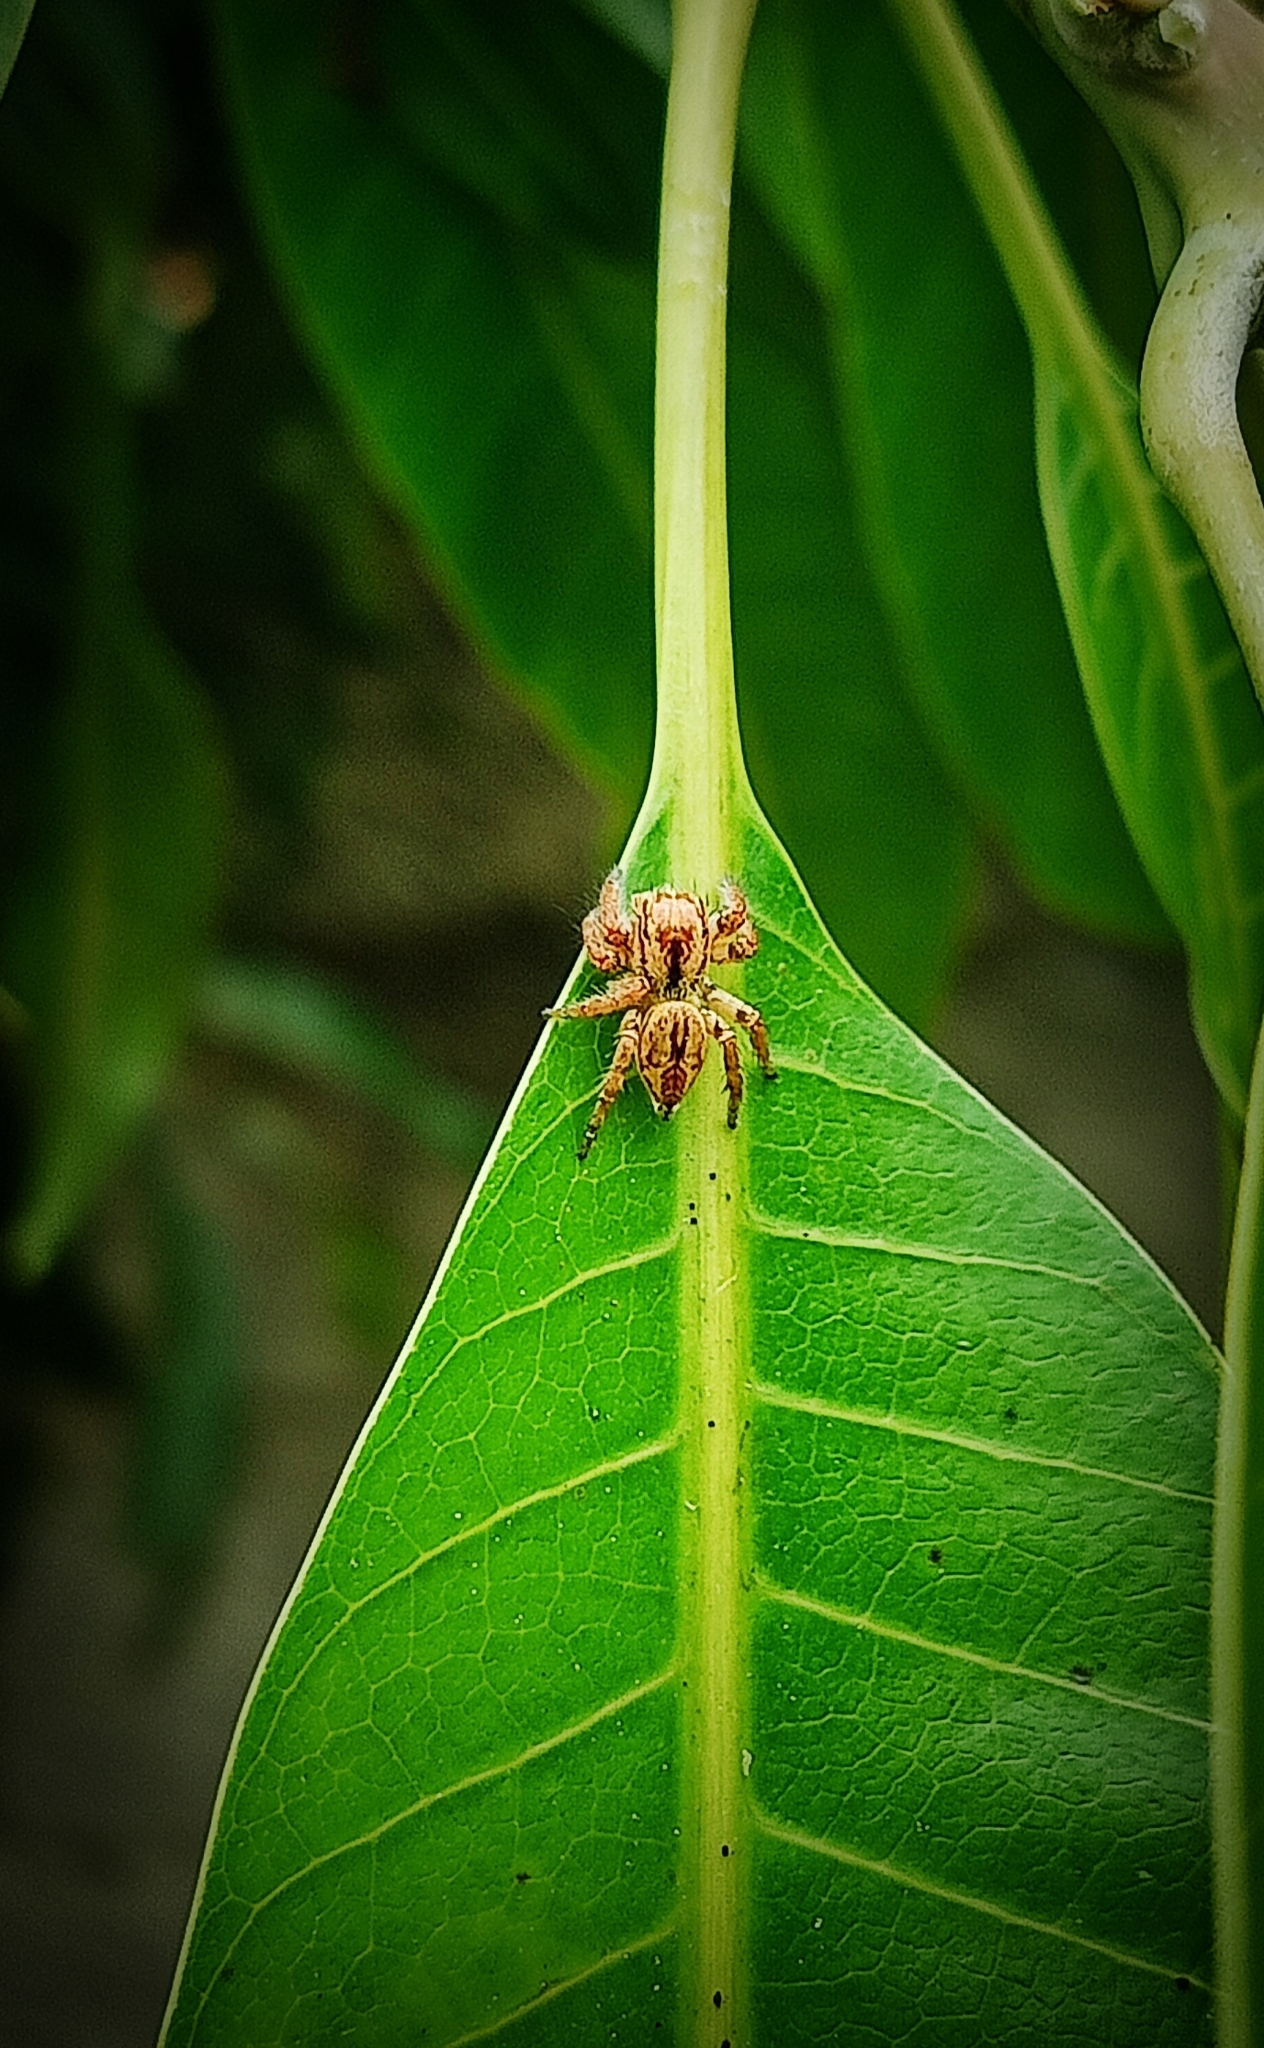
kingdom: Animalia
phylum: Arthropoda
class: Arachnida
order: Araneae
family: Salticidae
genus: Carrhotus
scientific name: Carrhotus viduus
